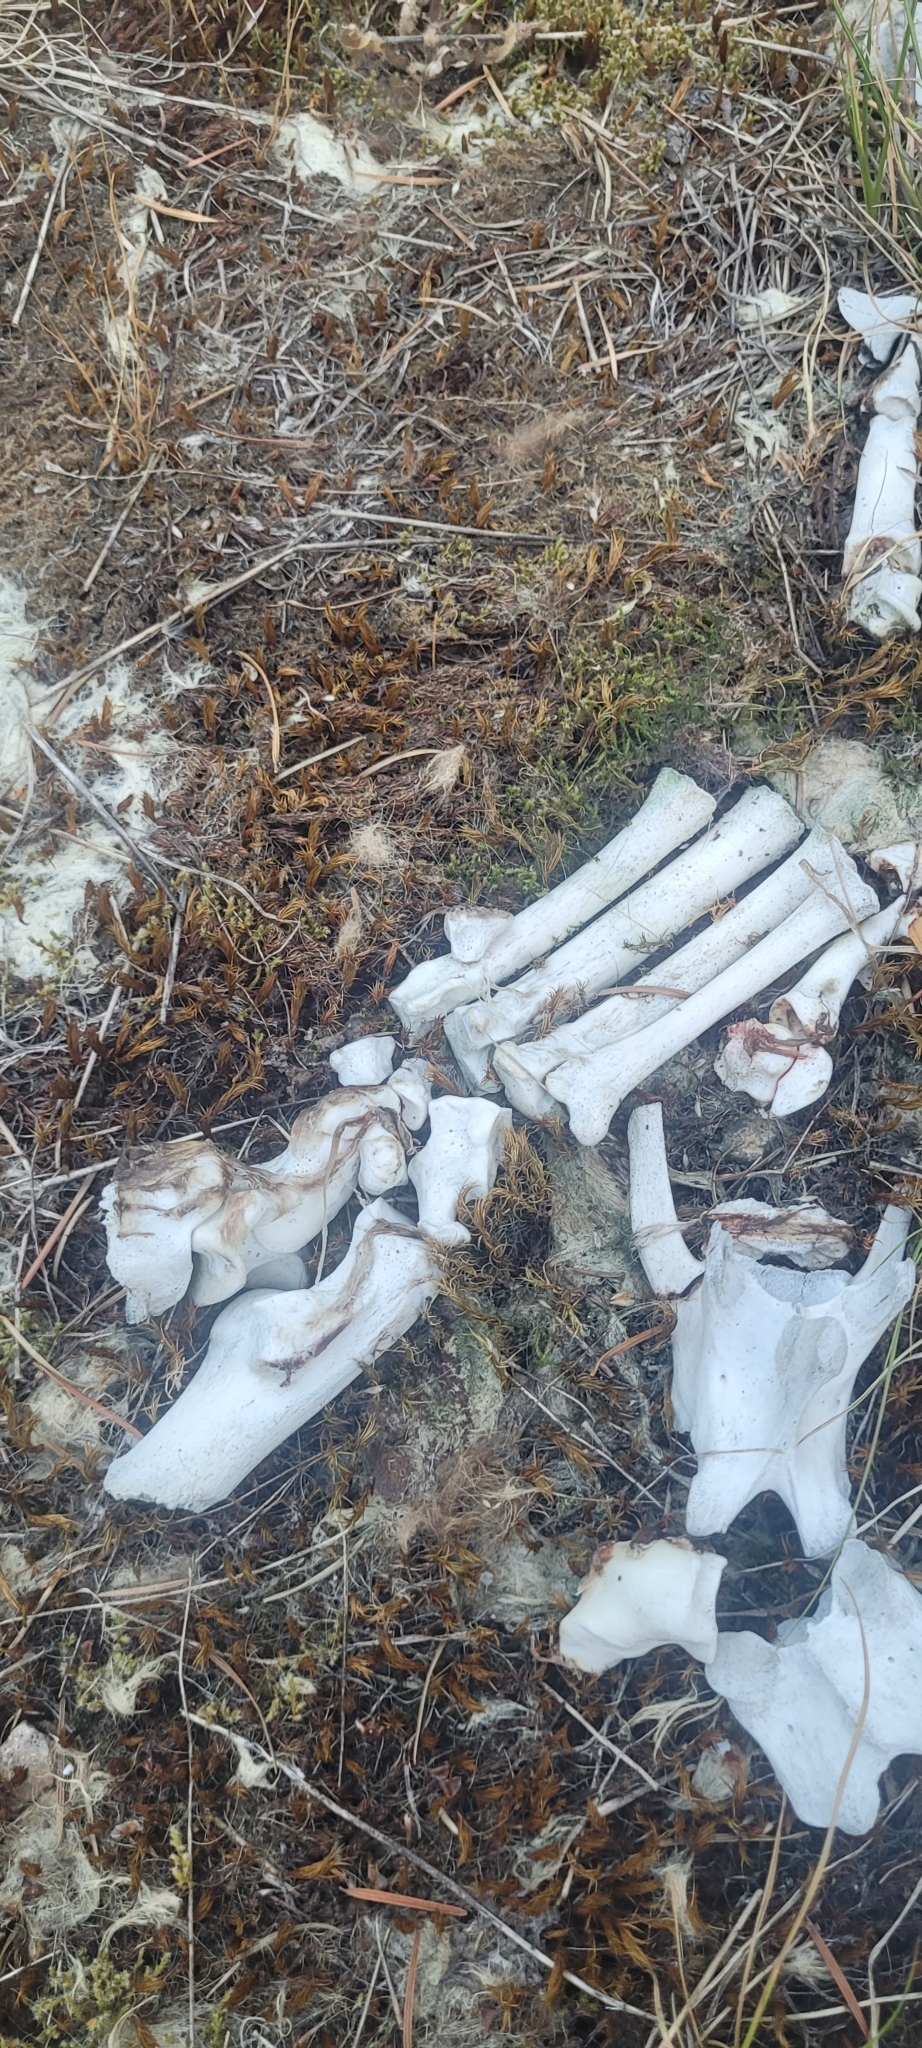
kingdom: Animalia
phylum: Chordata
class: Mammalia
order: Carnivora
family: Felidae
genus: Puma
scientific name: Puma concolor
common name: Puma
